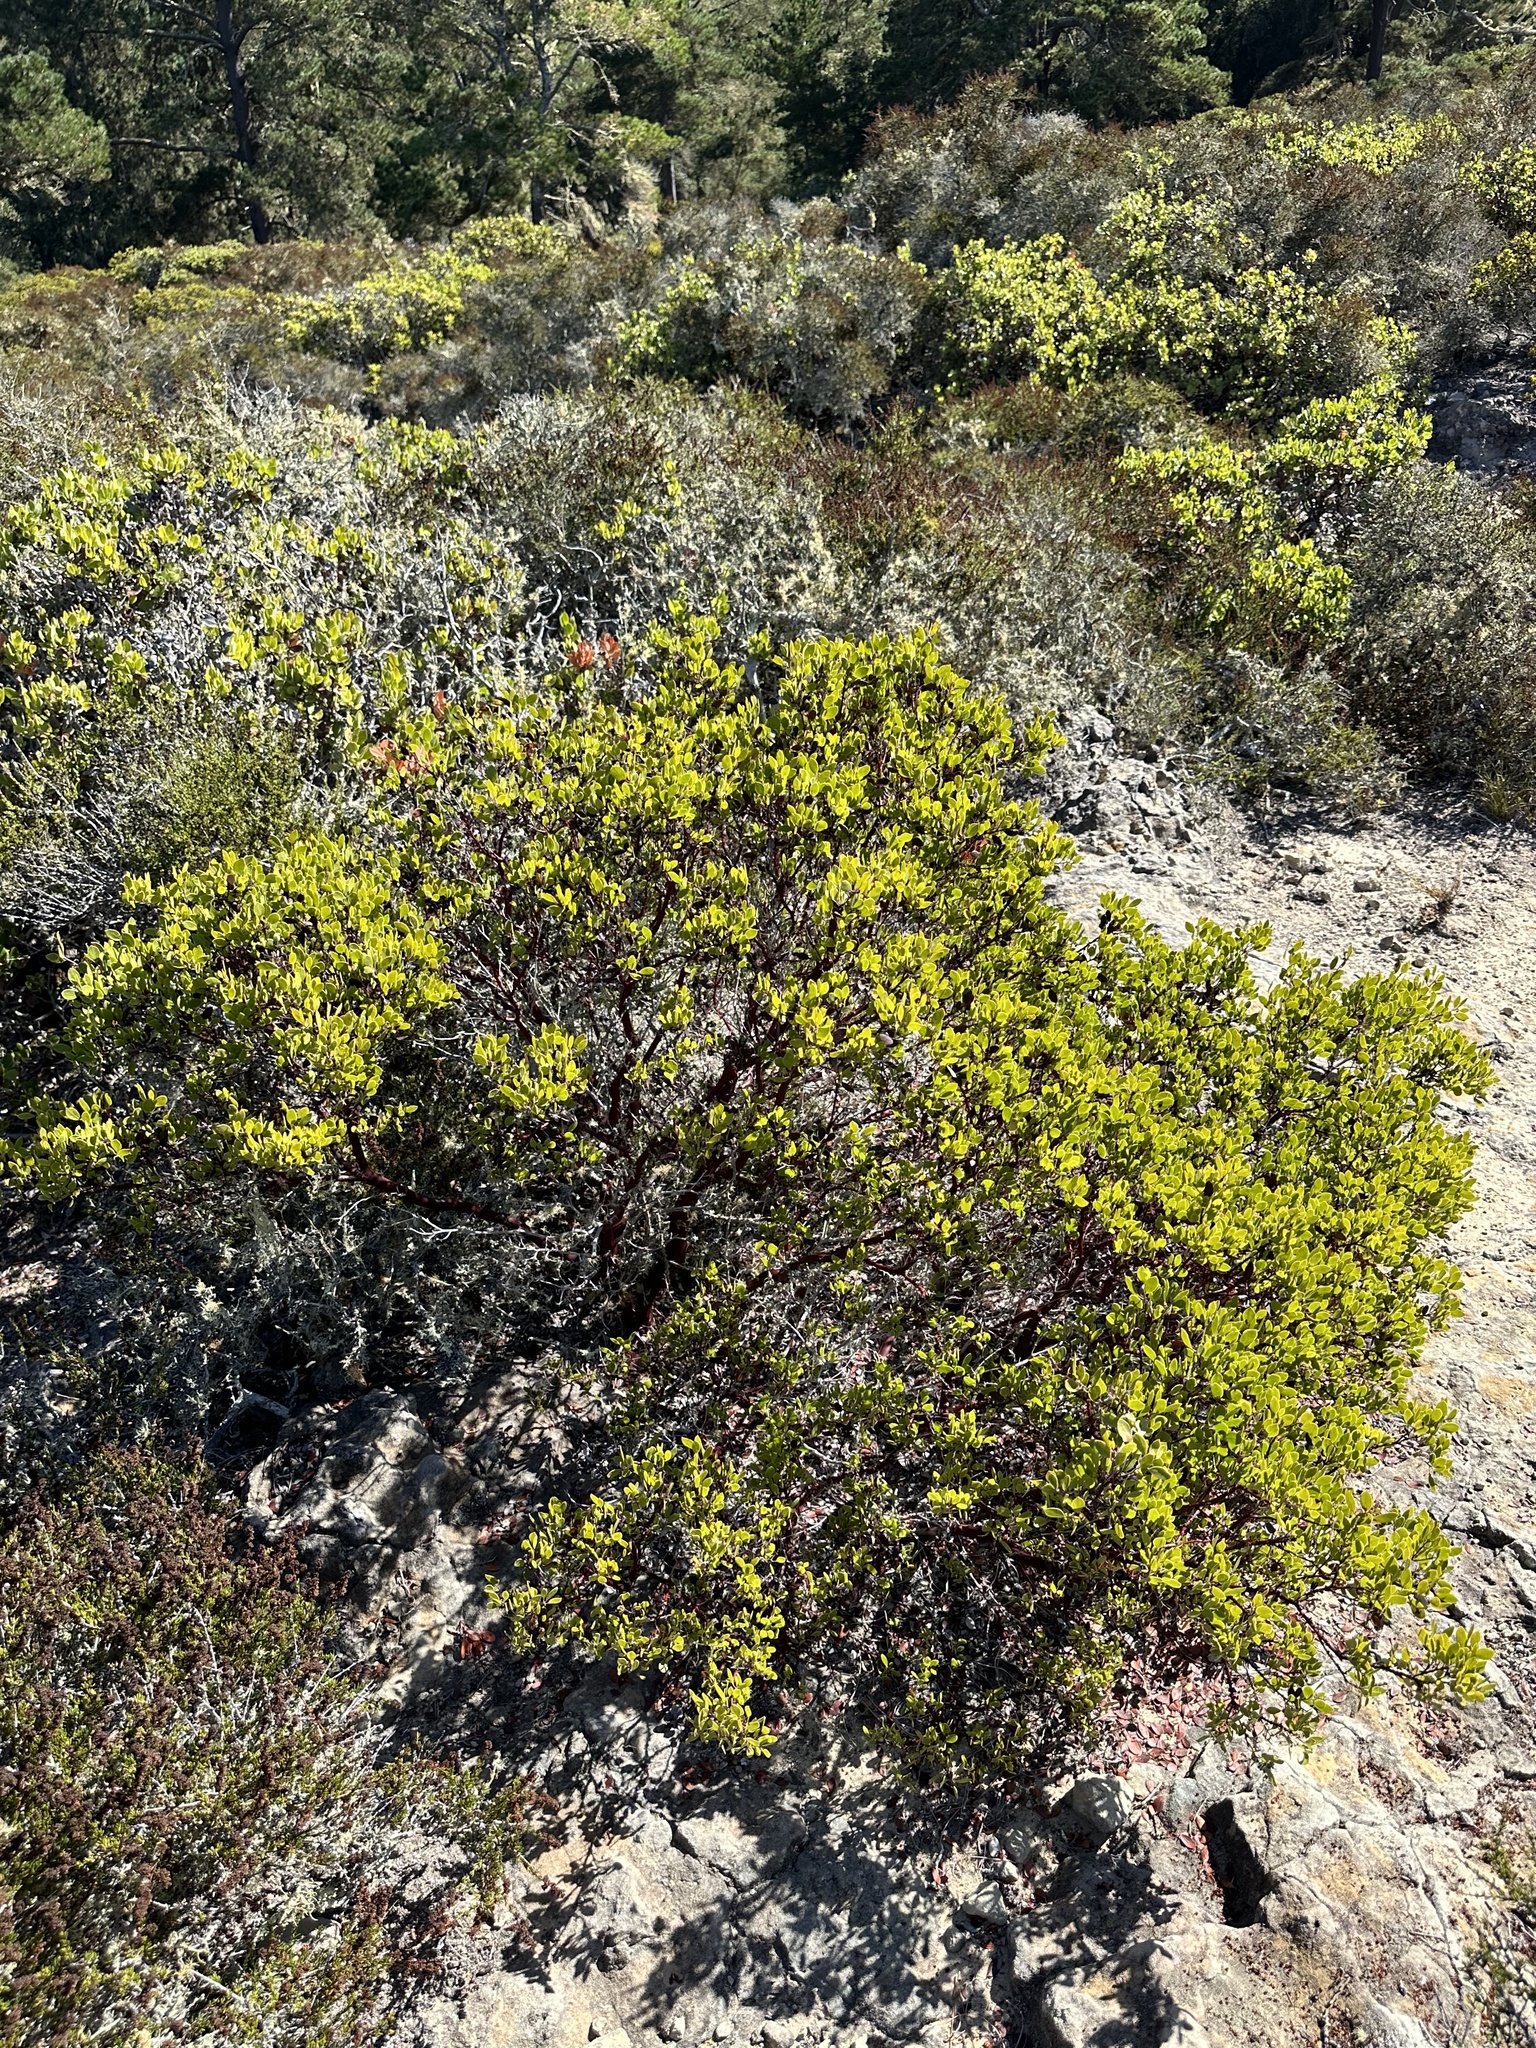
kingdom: Plantae
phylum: Tracheophyta
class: Magnoliopsida
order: Ericales
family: Ericaceae
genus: Arctostaphylos
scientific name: Arctostaphylos hookeri
